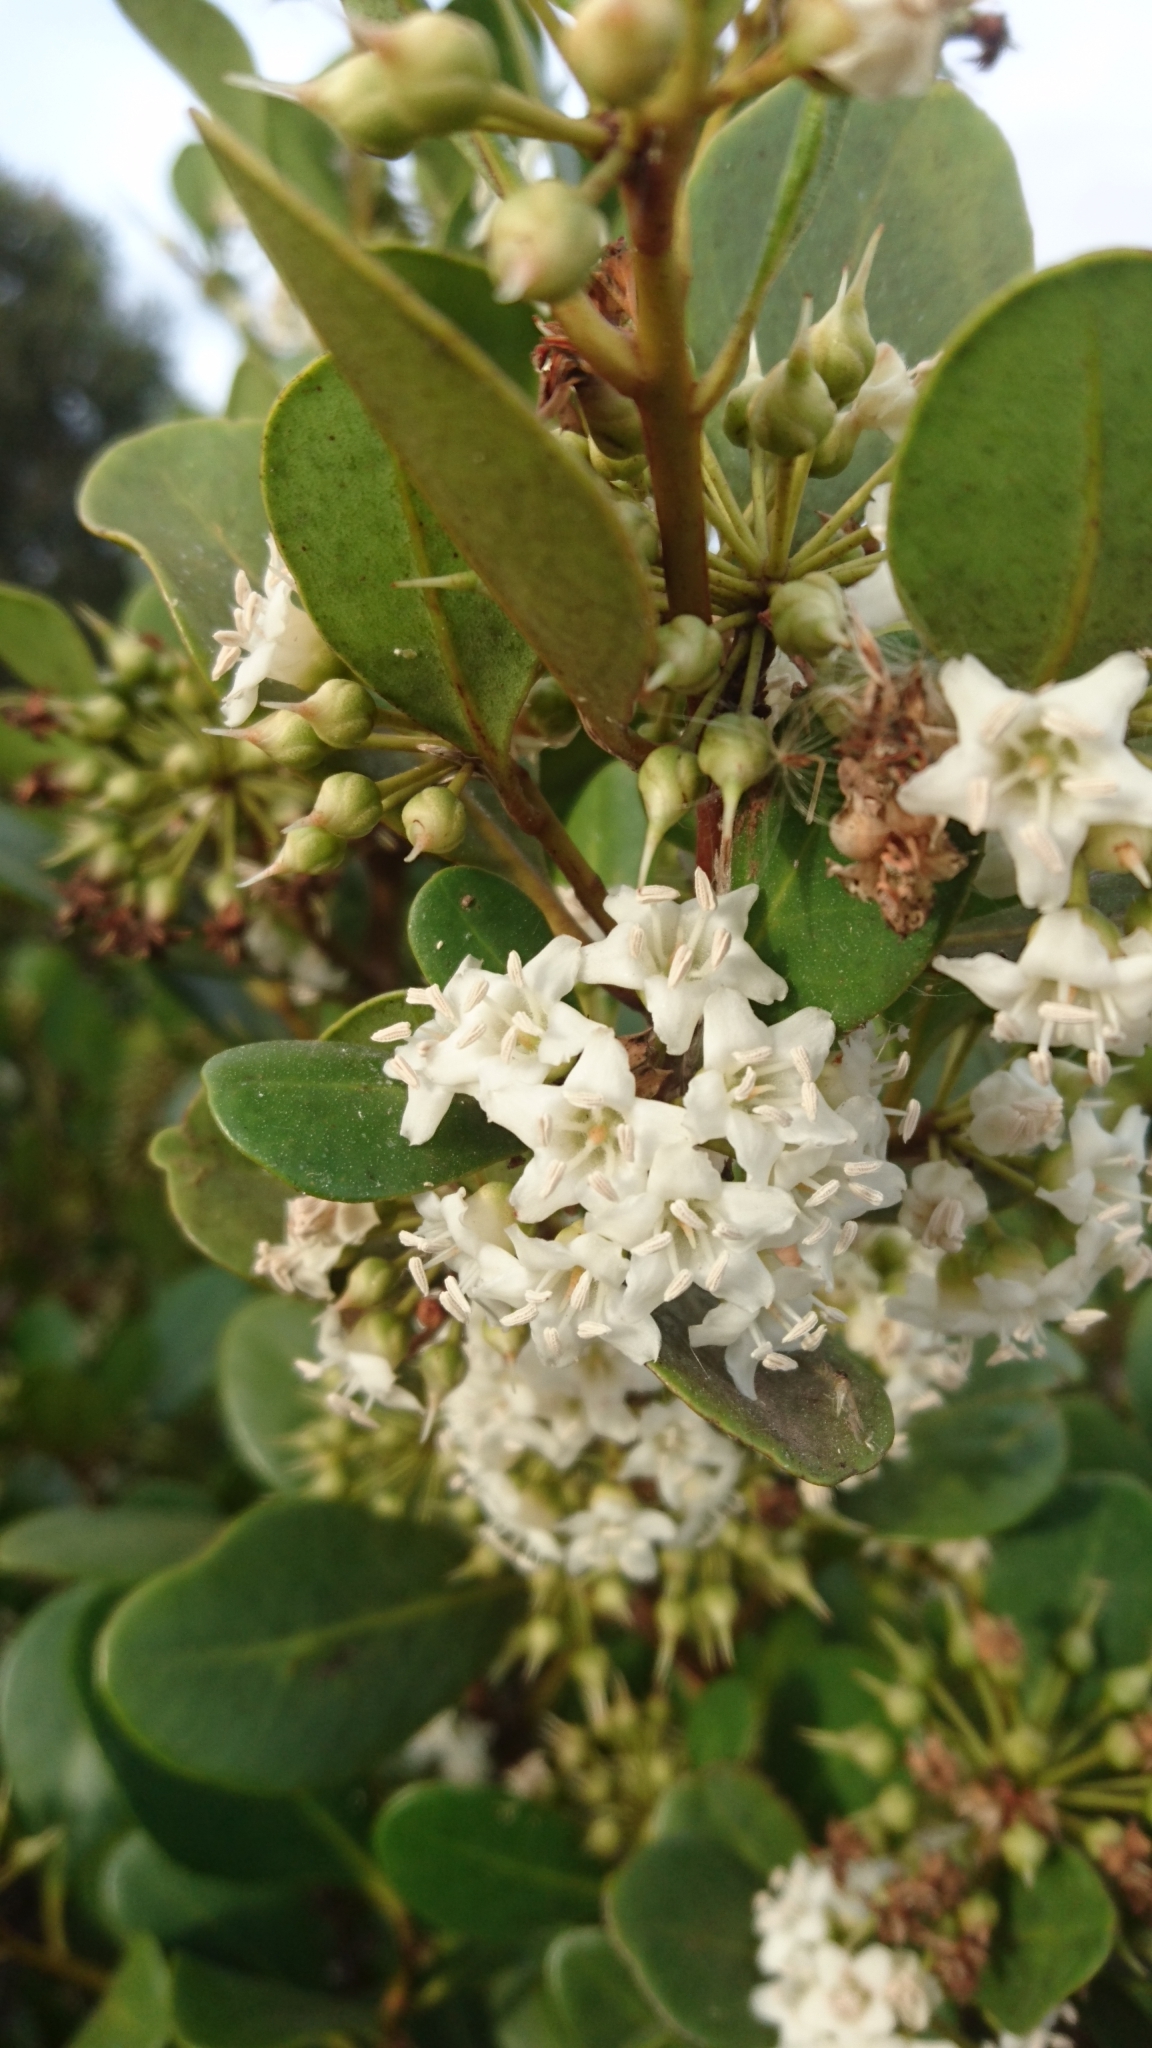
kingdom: Plantae
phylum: Tracheophyta
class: Magnoliopsida
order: Ericales
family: Primulaceae
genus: Aegiceras
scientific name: Aegiceras corniculatum
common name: River mangrove
